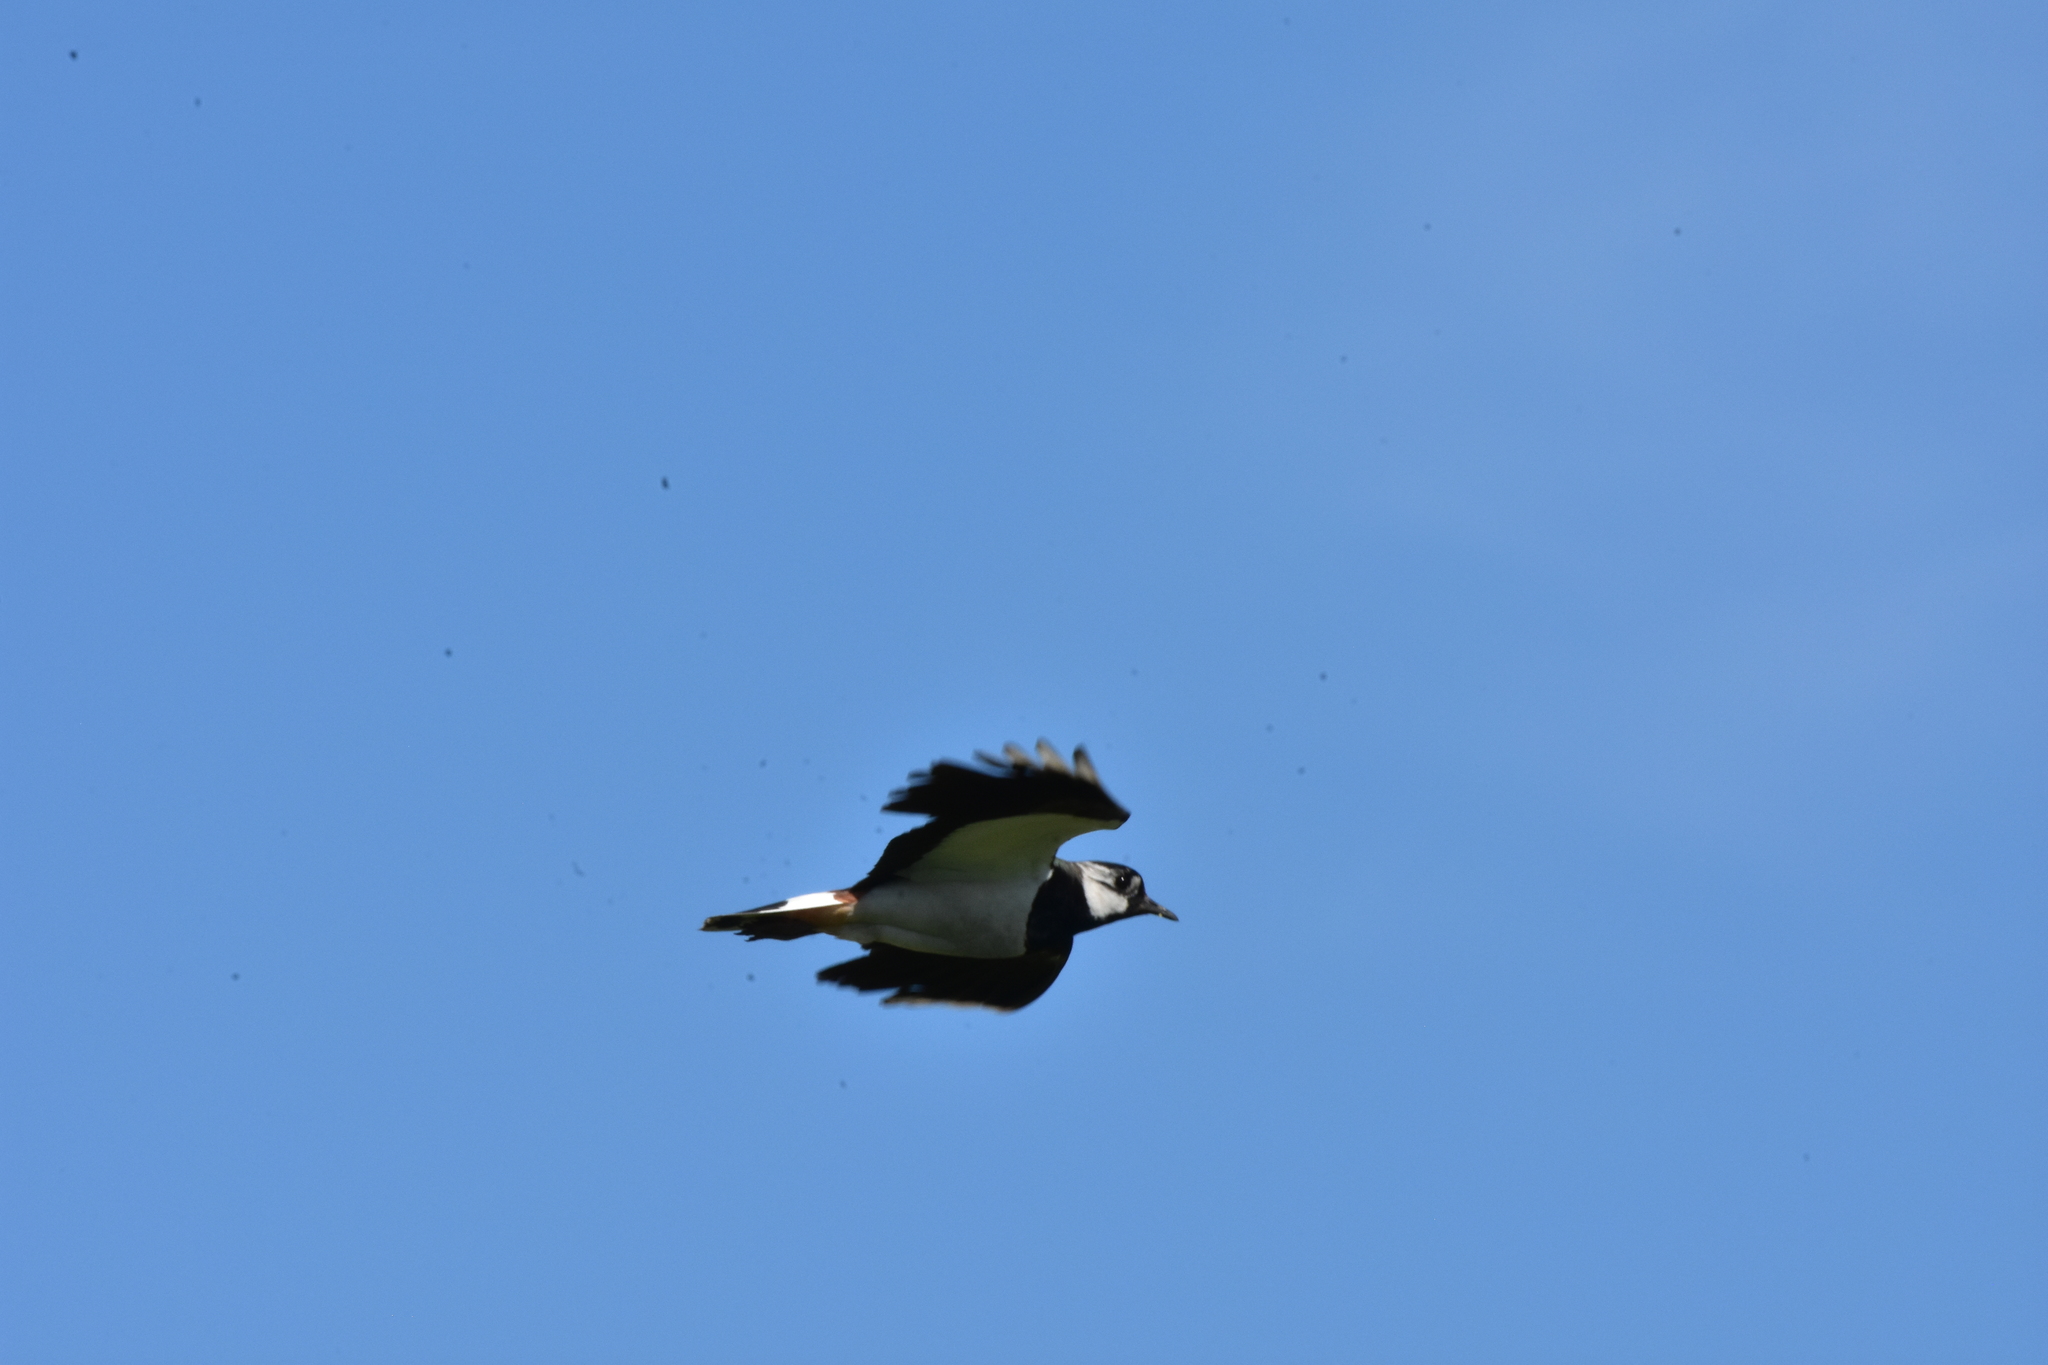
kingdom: Animalia
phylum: Chordata
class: Aves
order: Charadriiformes
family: Charadriidae
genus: Vanellus
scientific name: Vanellus vanellus
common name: Northern lapwing
